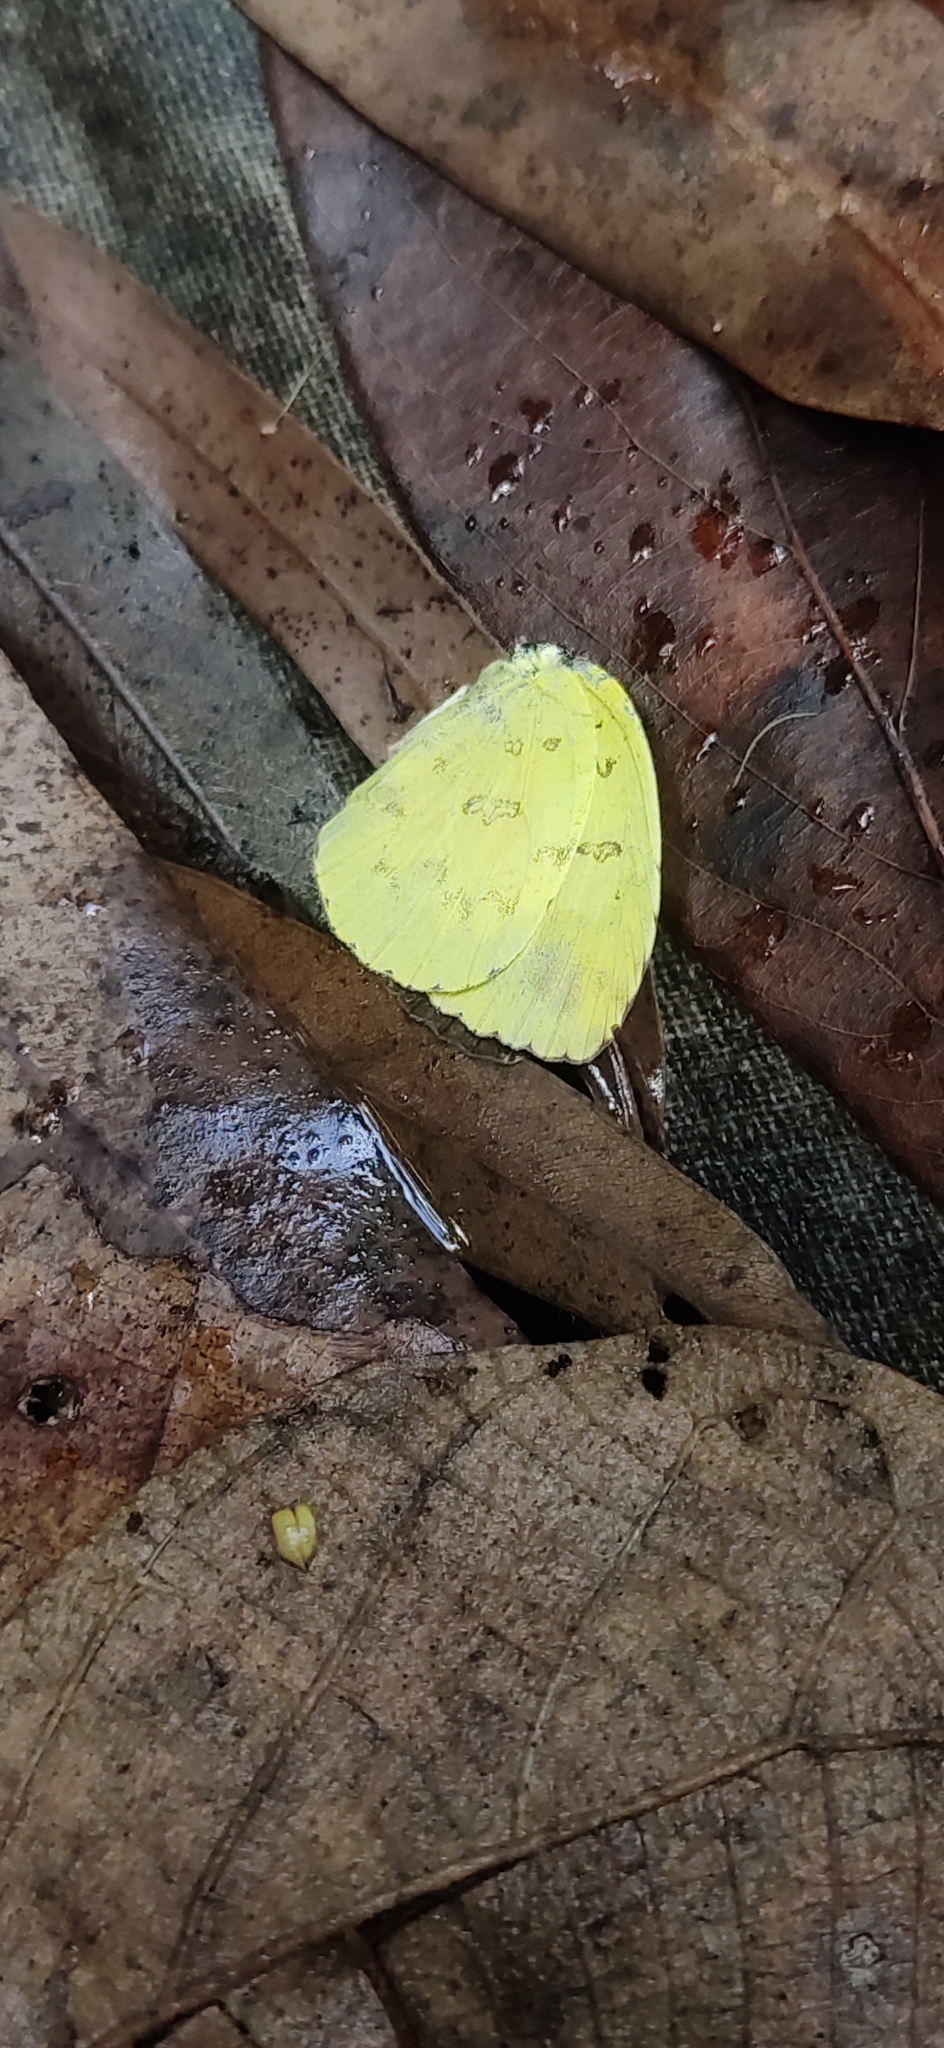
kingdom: Animalia
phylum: Arthropoda
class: Insecta
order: Lepidoptera
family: Pieridae
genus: Eurema
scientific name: Eurema hecabe
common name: Pale grass yellow
